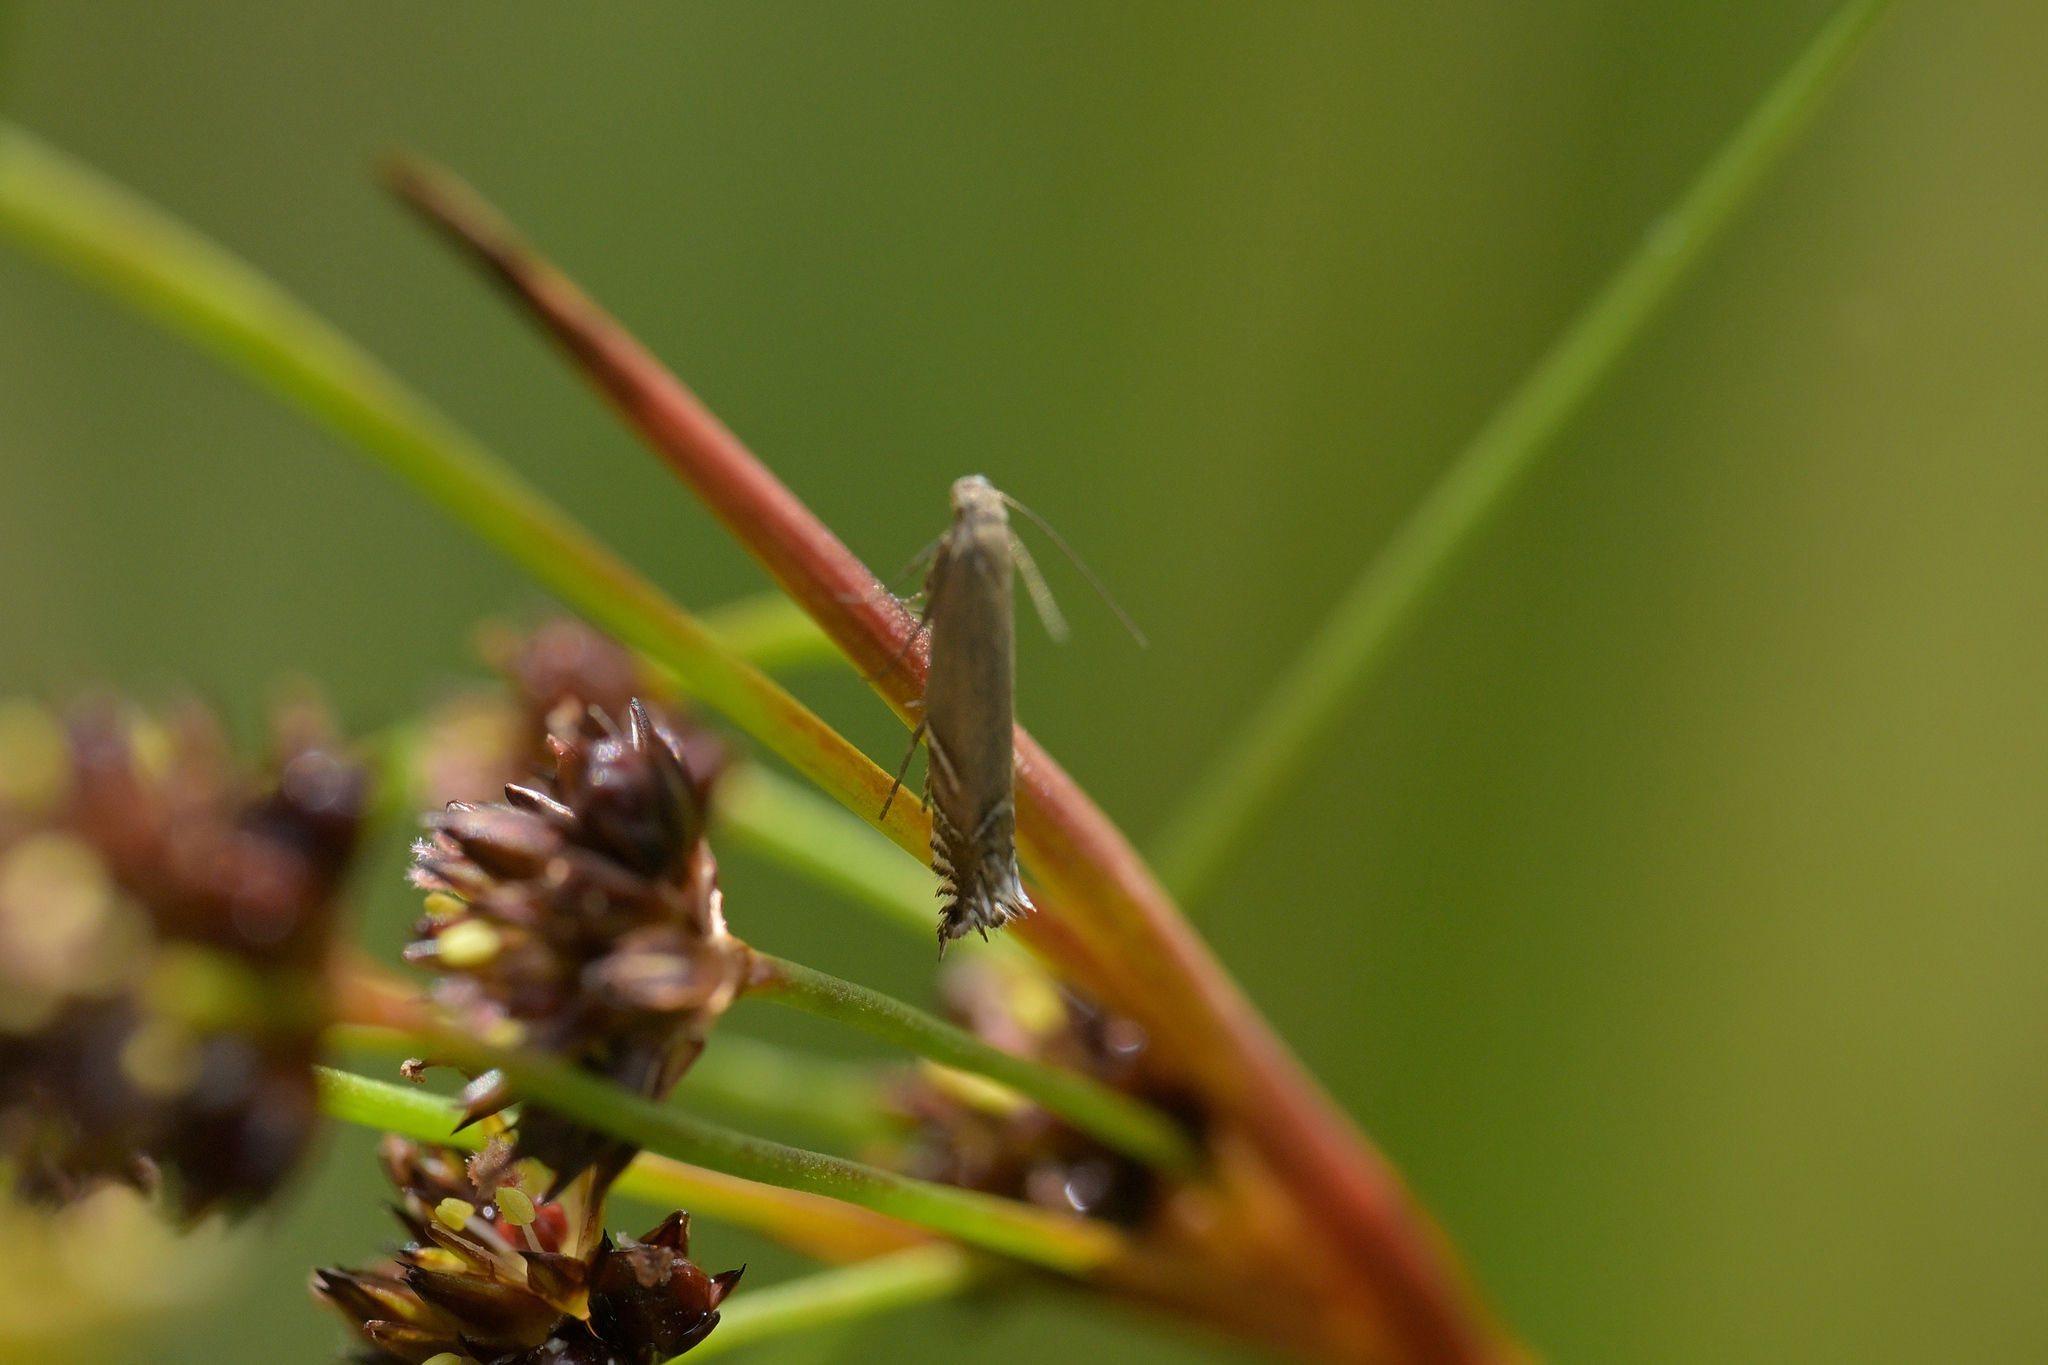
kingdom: Animalia
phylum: Arthropoda
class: Insecta
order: Lepidoptera
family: Glyphipterigidae
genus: Glyphipterix
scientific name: Glyphipterix iocheaera
